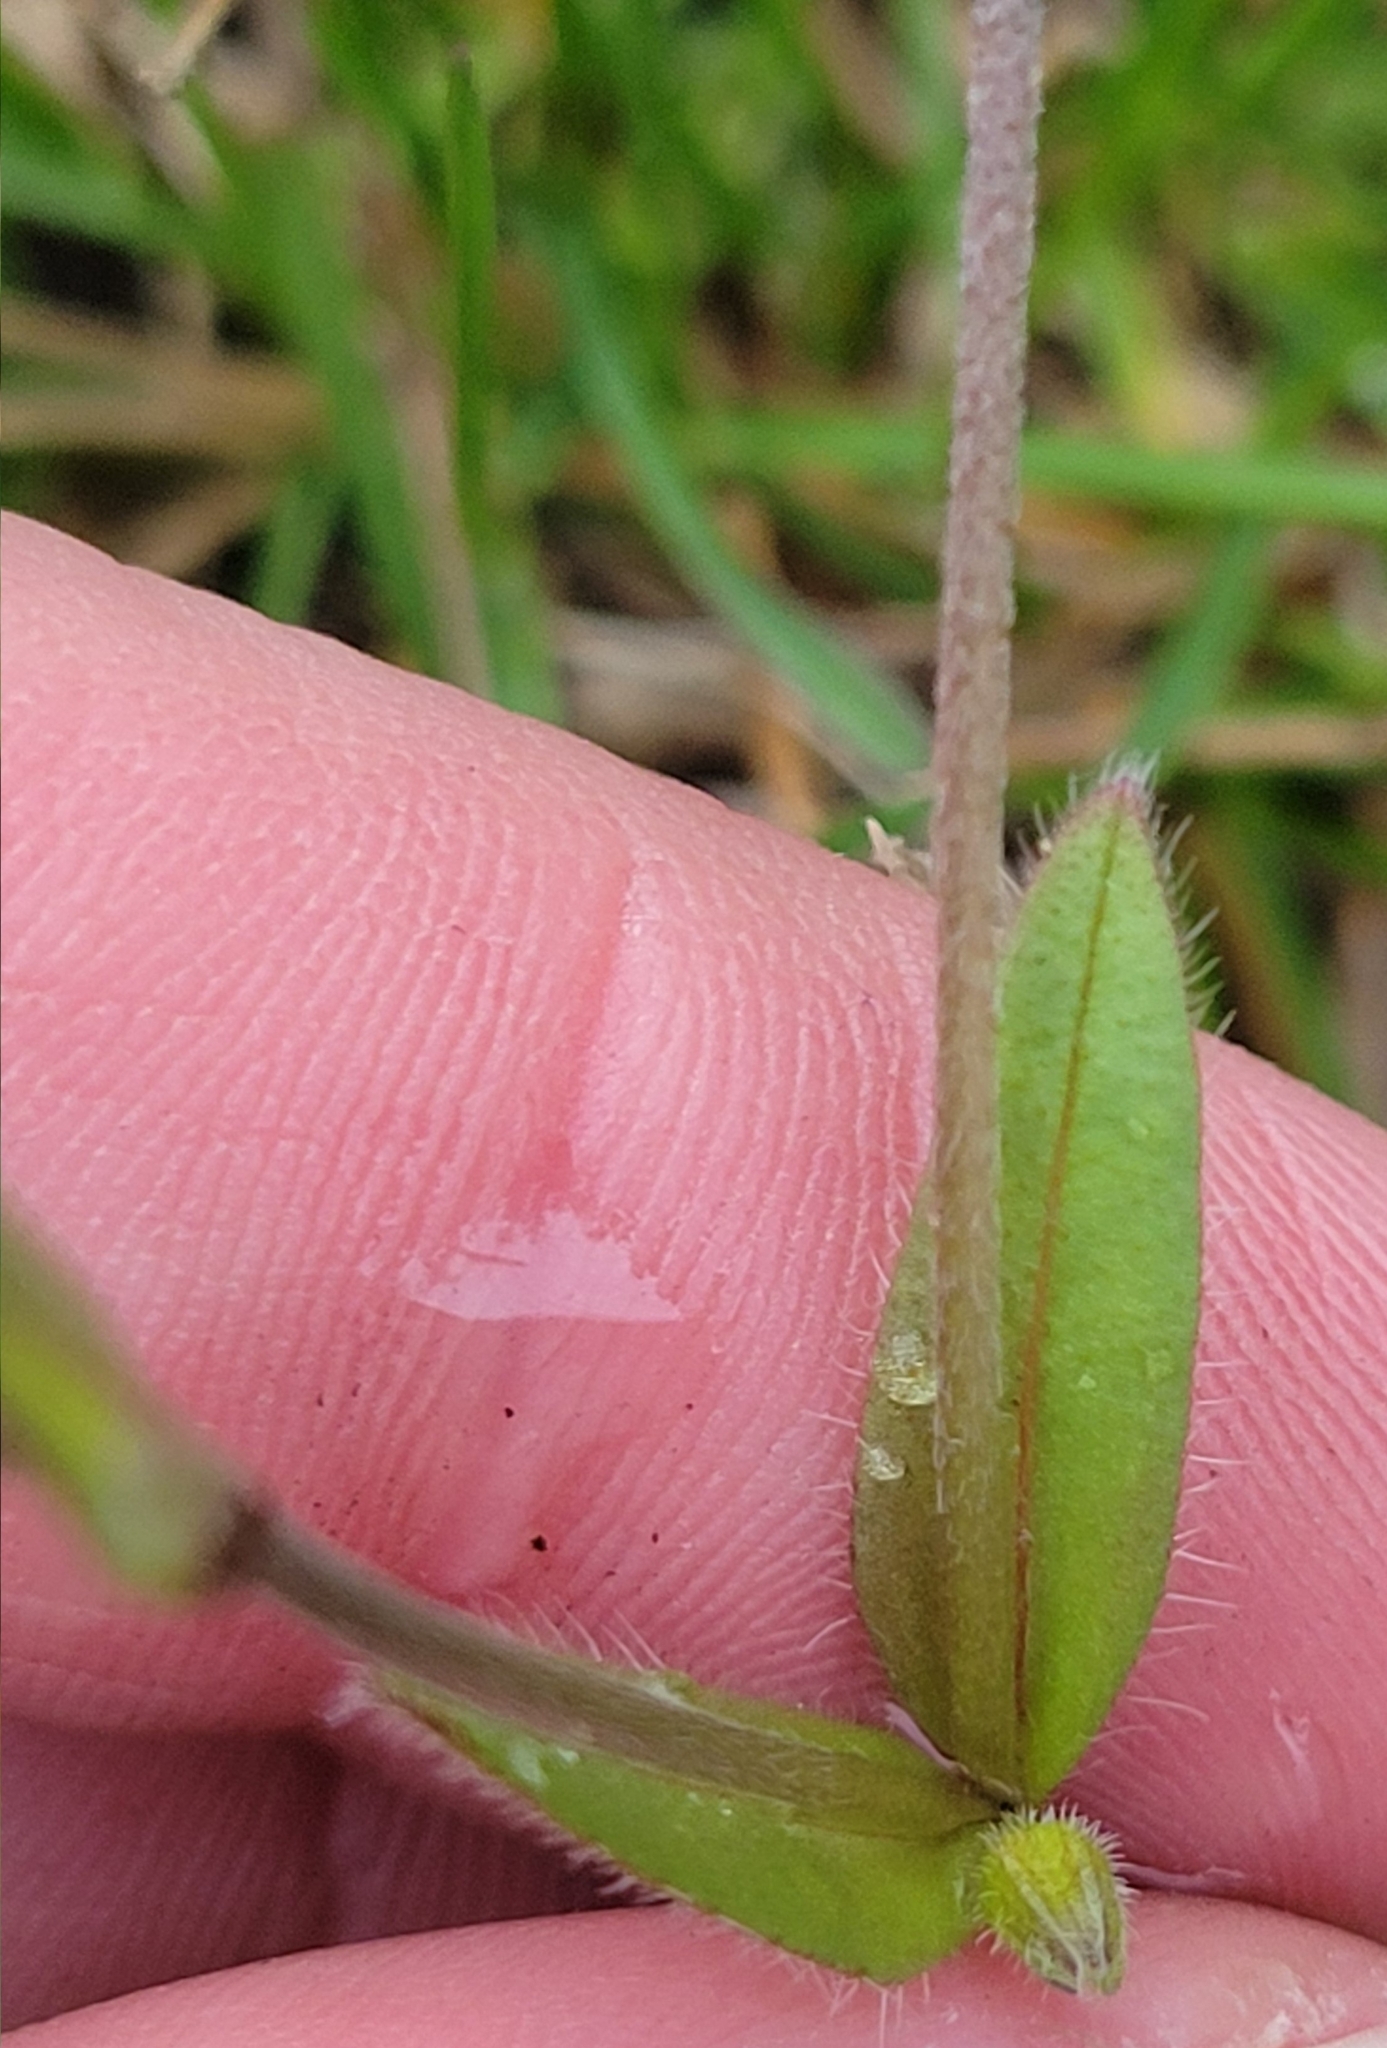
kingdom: Plantae
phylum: Tracheophyta
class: Magnoliopsida
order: Boraginales
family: Boraginaceae
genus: Myosotis
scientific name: Myosotis discolor
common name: Changing forget-me-not
